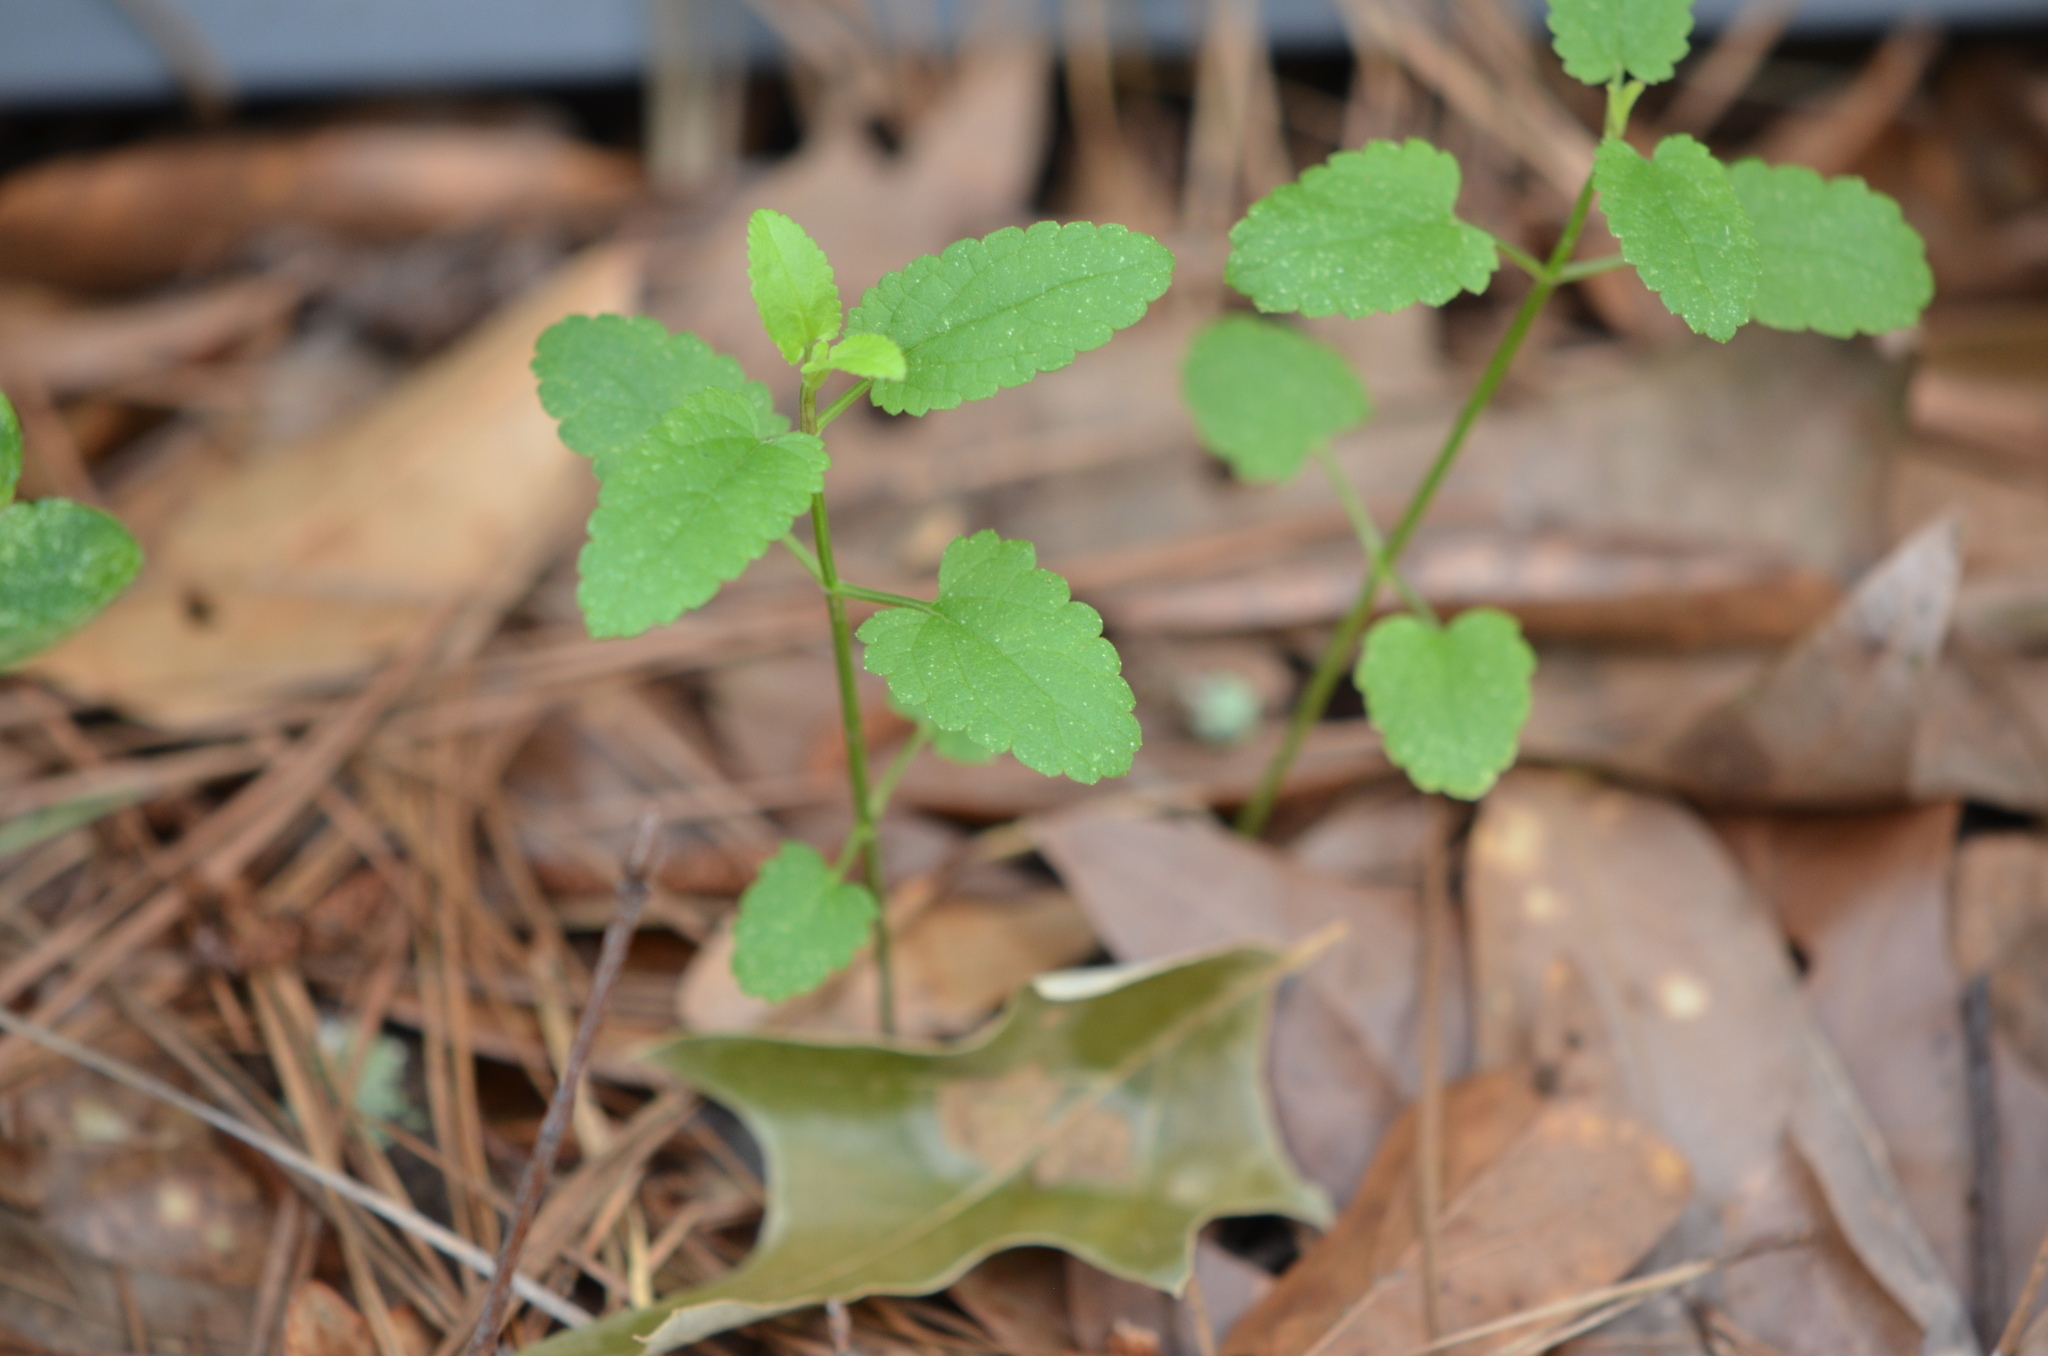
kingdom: Plantae
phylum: Tracheophyta
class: Magnoliopsida
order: Lamiales
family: Lamiaceae
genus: Stachys
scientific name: Stachys floridana
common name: Florida betony
